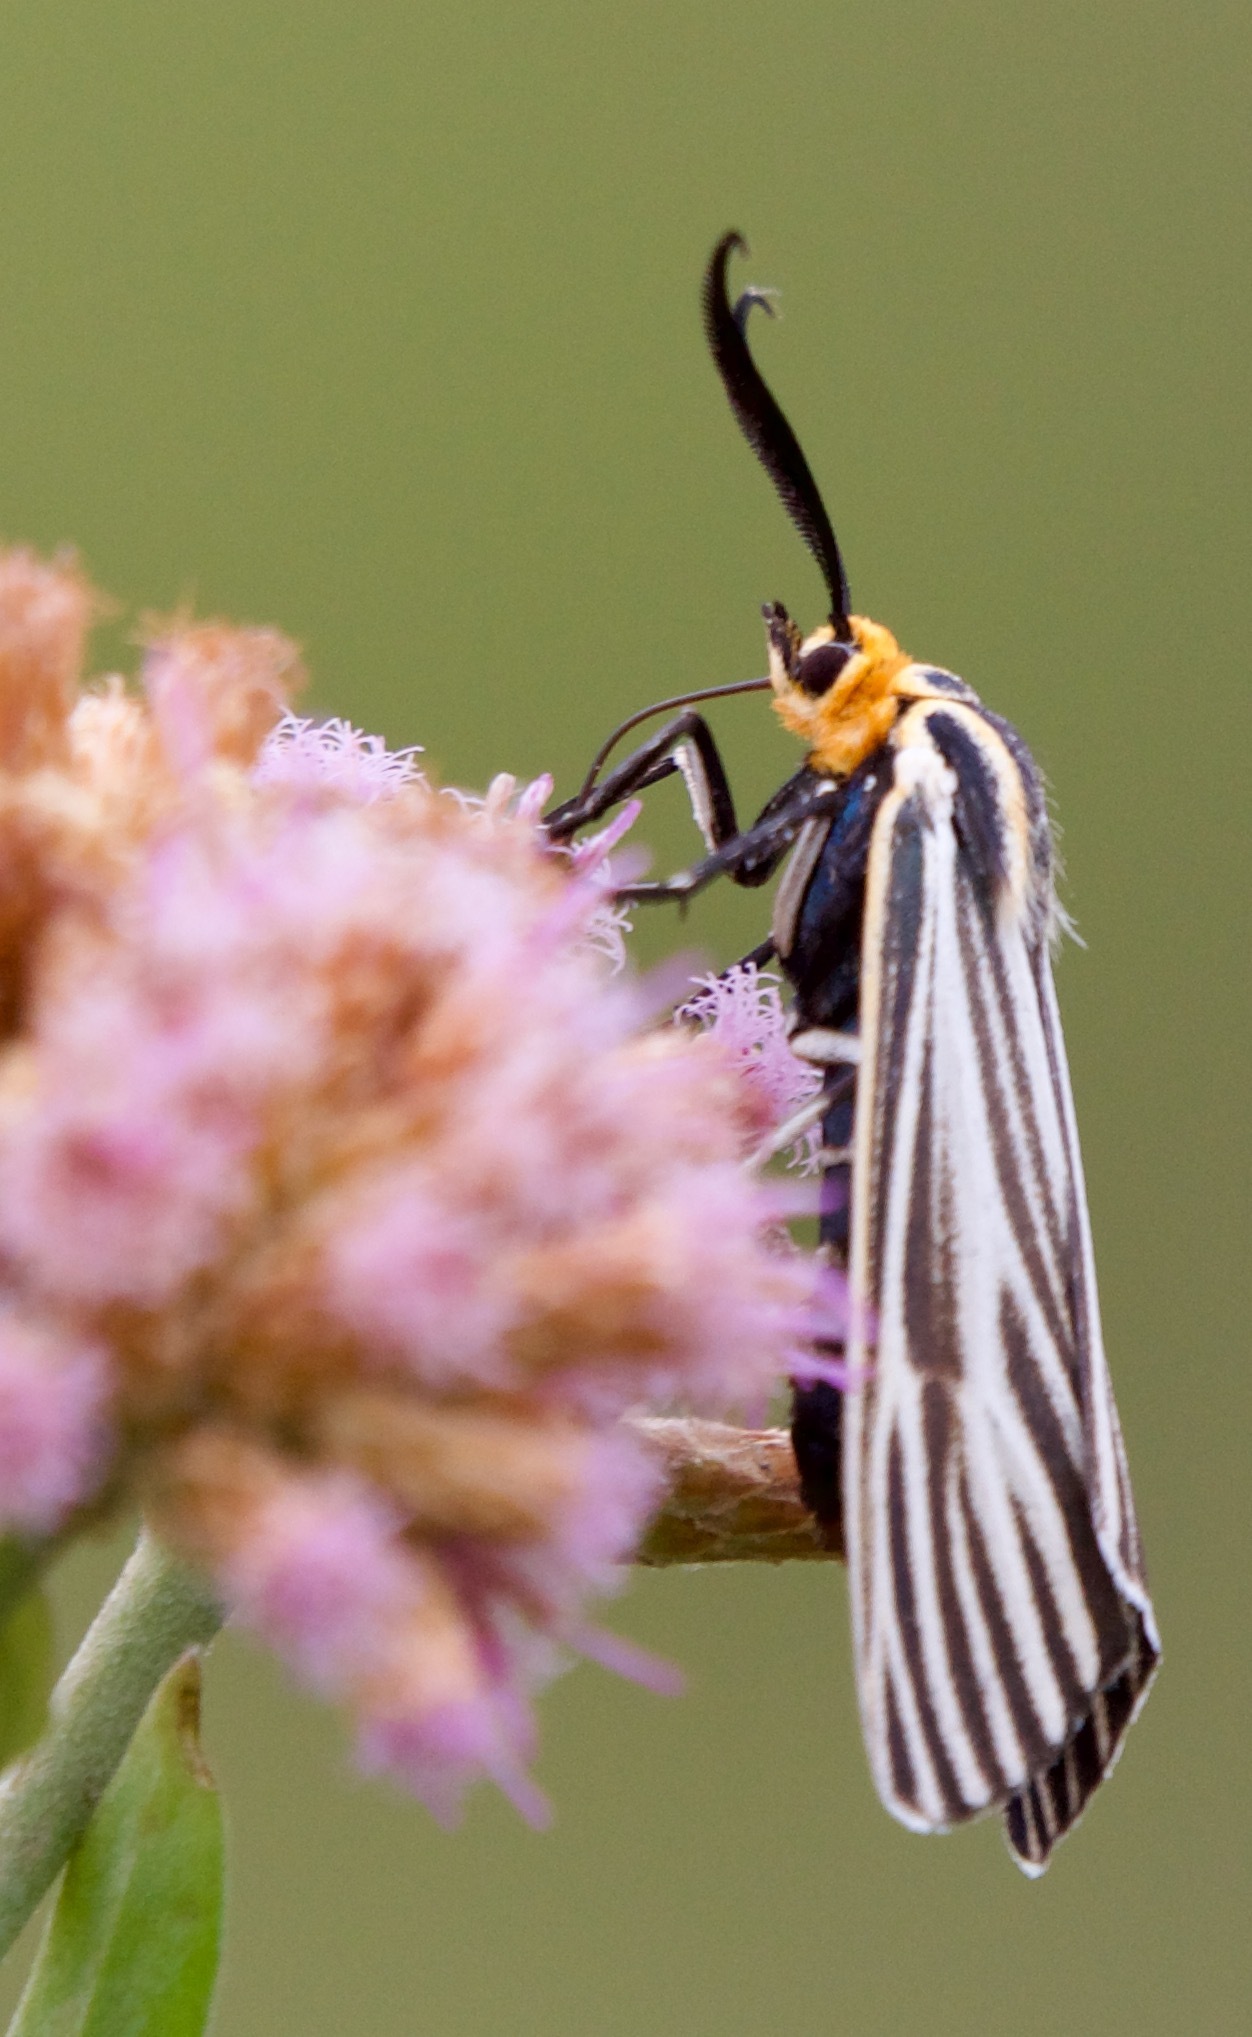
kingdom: Animalia
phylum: Arthropoda
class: Insecta
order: Lepidoptera
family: Erebidae
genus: Ctenucha
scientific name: Ctenucha vittigerum
